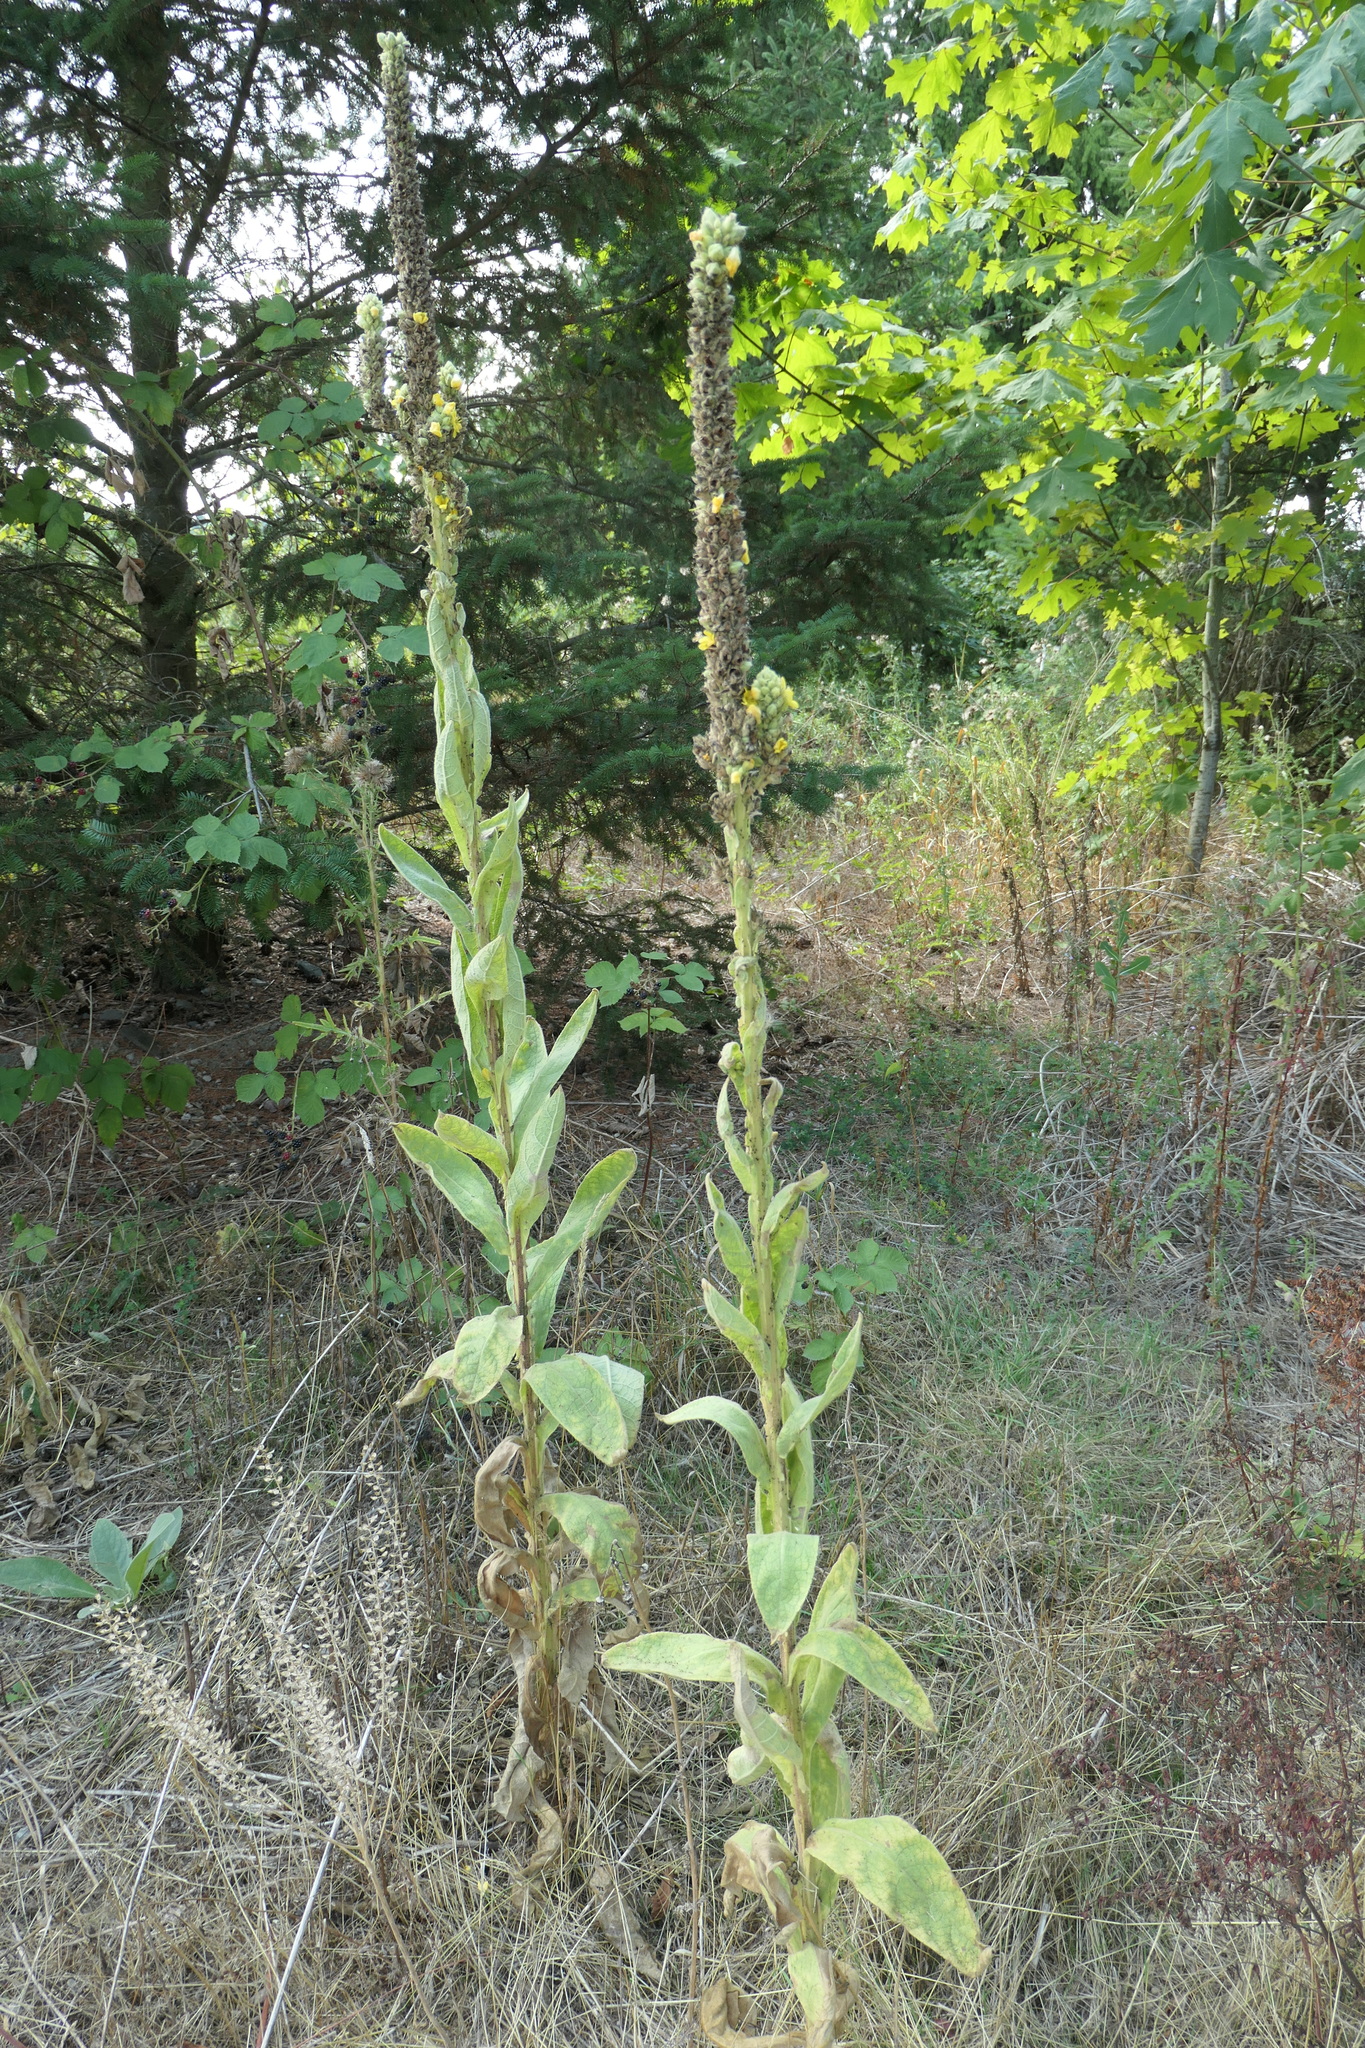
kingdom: Plantae
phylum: Tracheophyta
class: Magnoliopsida
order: Lamiales
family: Scrophulariaceae
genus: Verbascum
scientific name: Verbascum thapsus
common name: Common mullein
